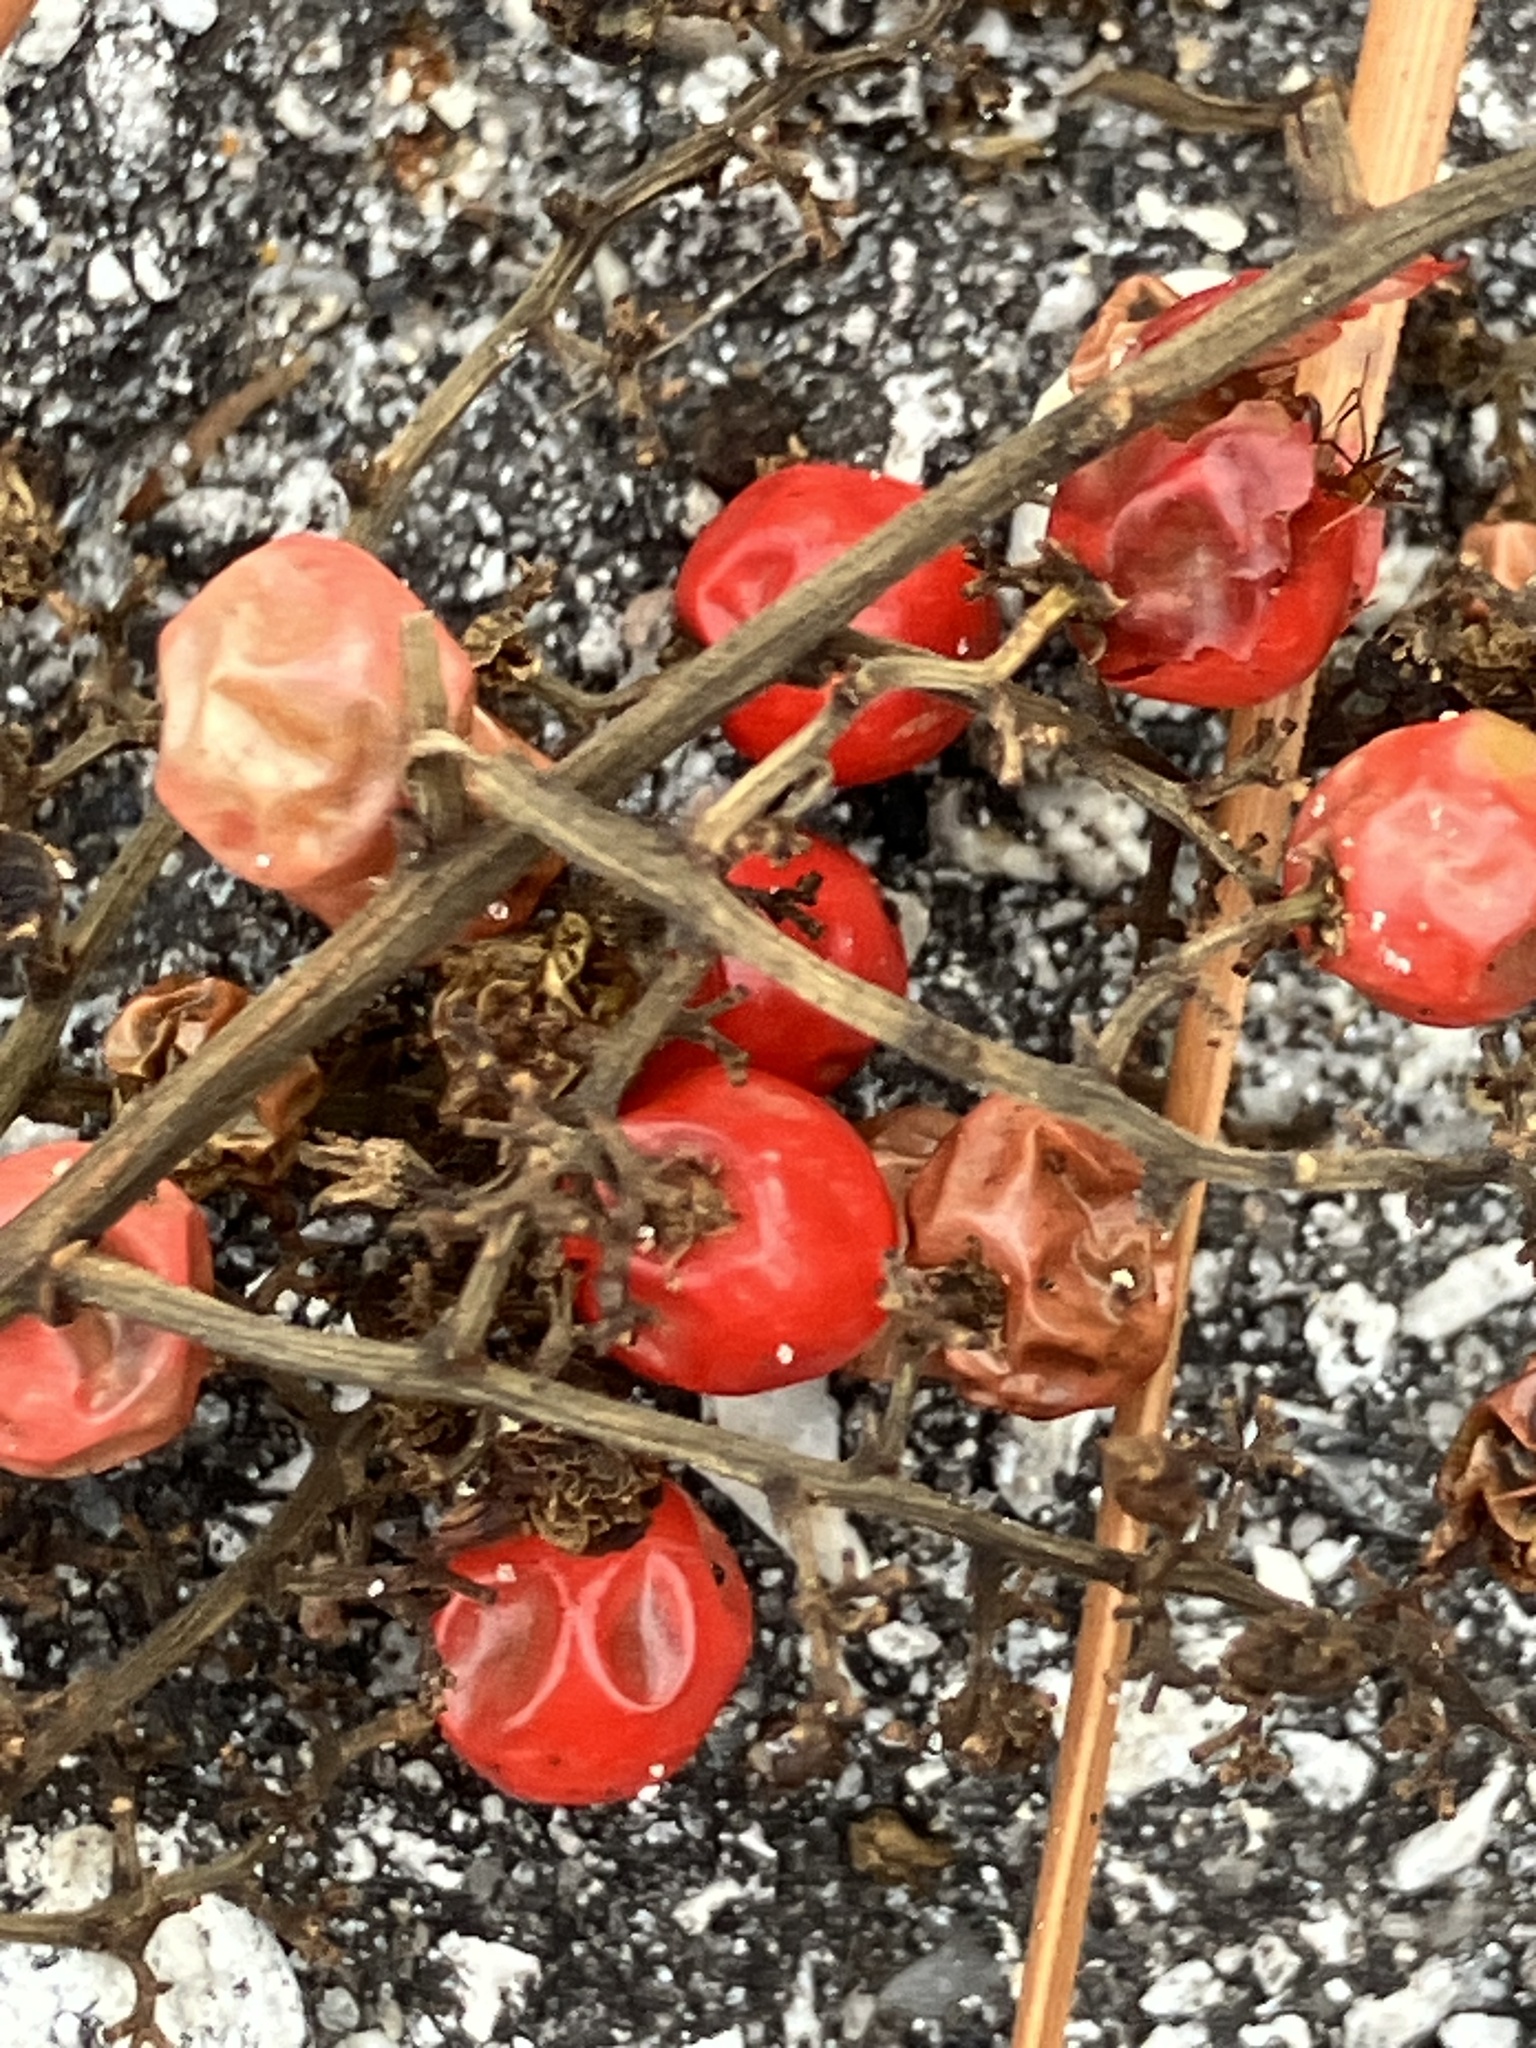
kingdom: Plantae
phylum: Tracheophyta
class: Magnoliopsida
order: Sapindales
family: Anacardiaceae
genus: Schinus
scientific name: Schinus terebinthifolia
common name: Brazilian peppertree
